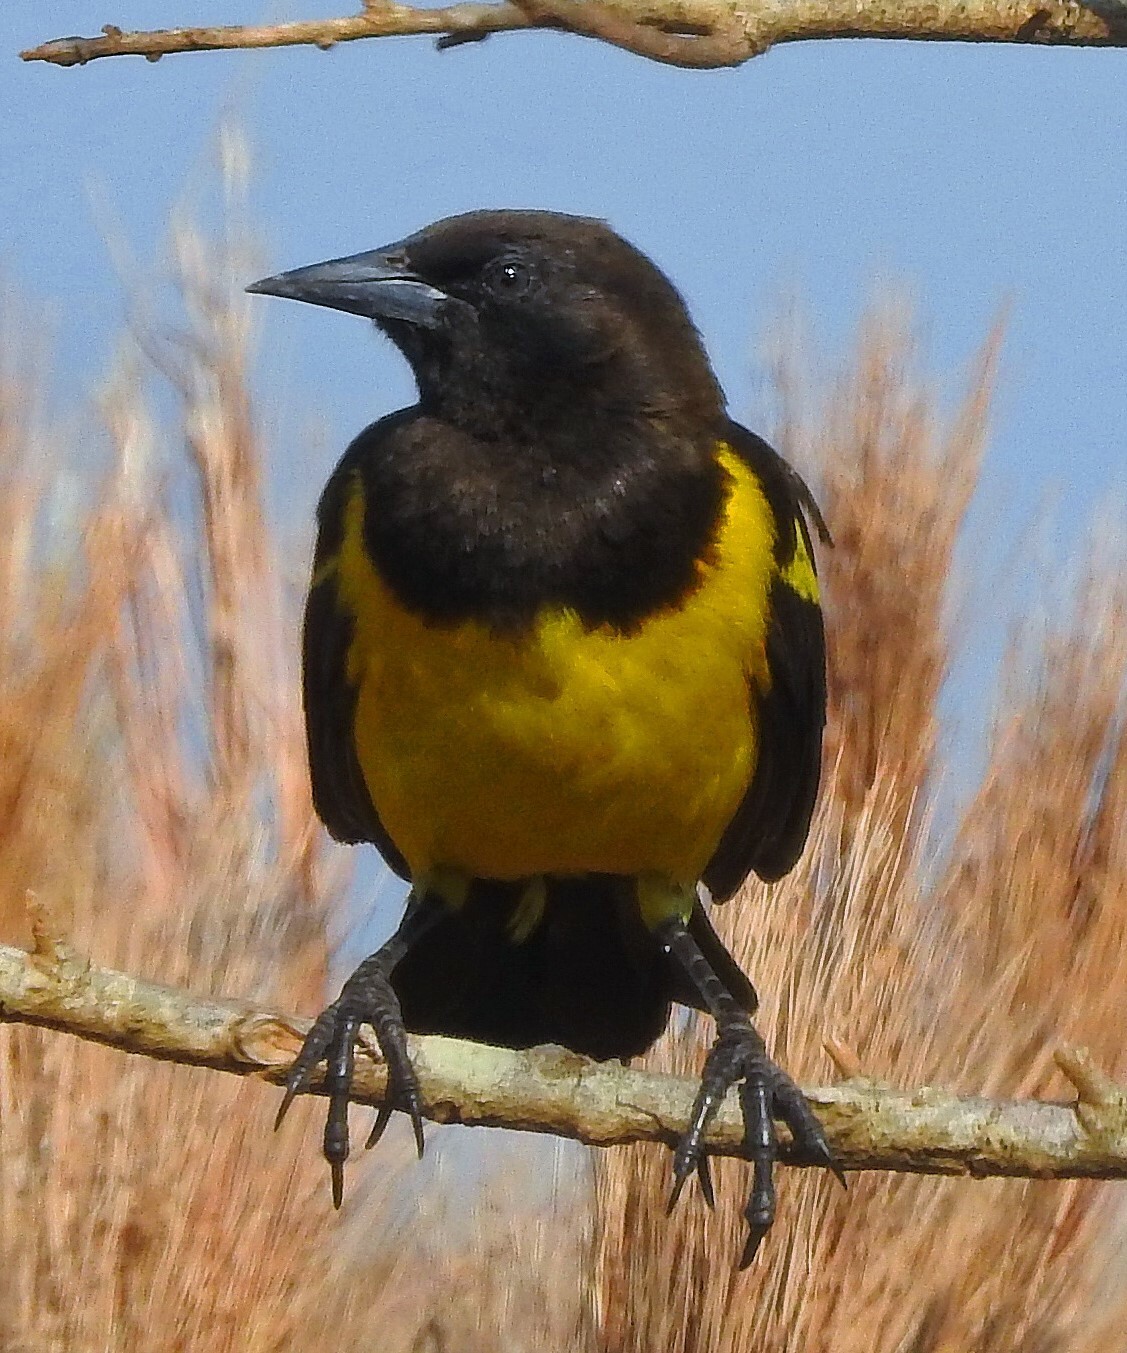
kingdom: Animalia
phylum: Chordata
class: Aves
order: Passeriformes
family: Icteridae
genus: Pseudoleistes
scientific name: Pseudoleistes guirahuro
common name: Yellow-rumped marshbird
